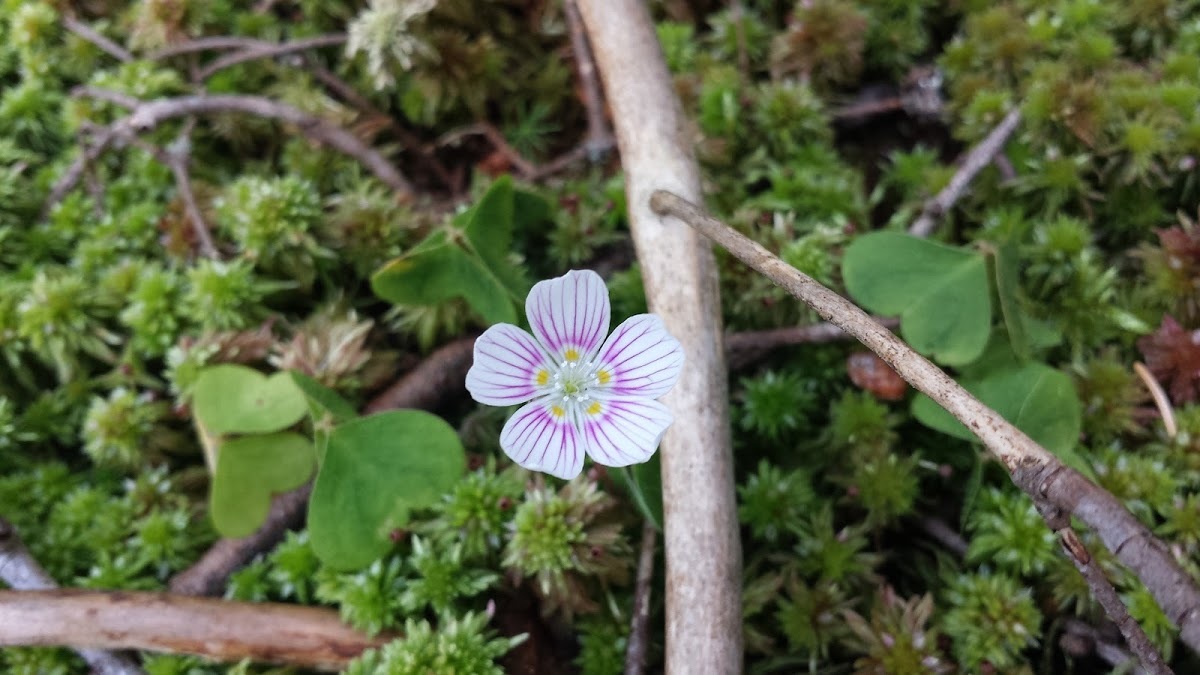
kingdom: Plantae
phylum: Tracheophyta
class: Magnoliopsida
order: Oxalidales
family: Oxalidaceae
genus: Oxalis
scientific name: Oxalis montana
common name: American wood-sorrel
